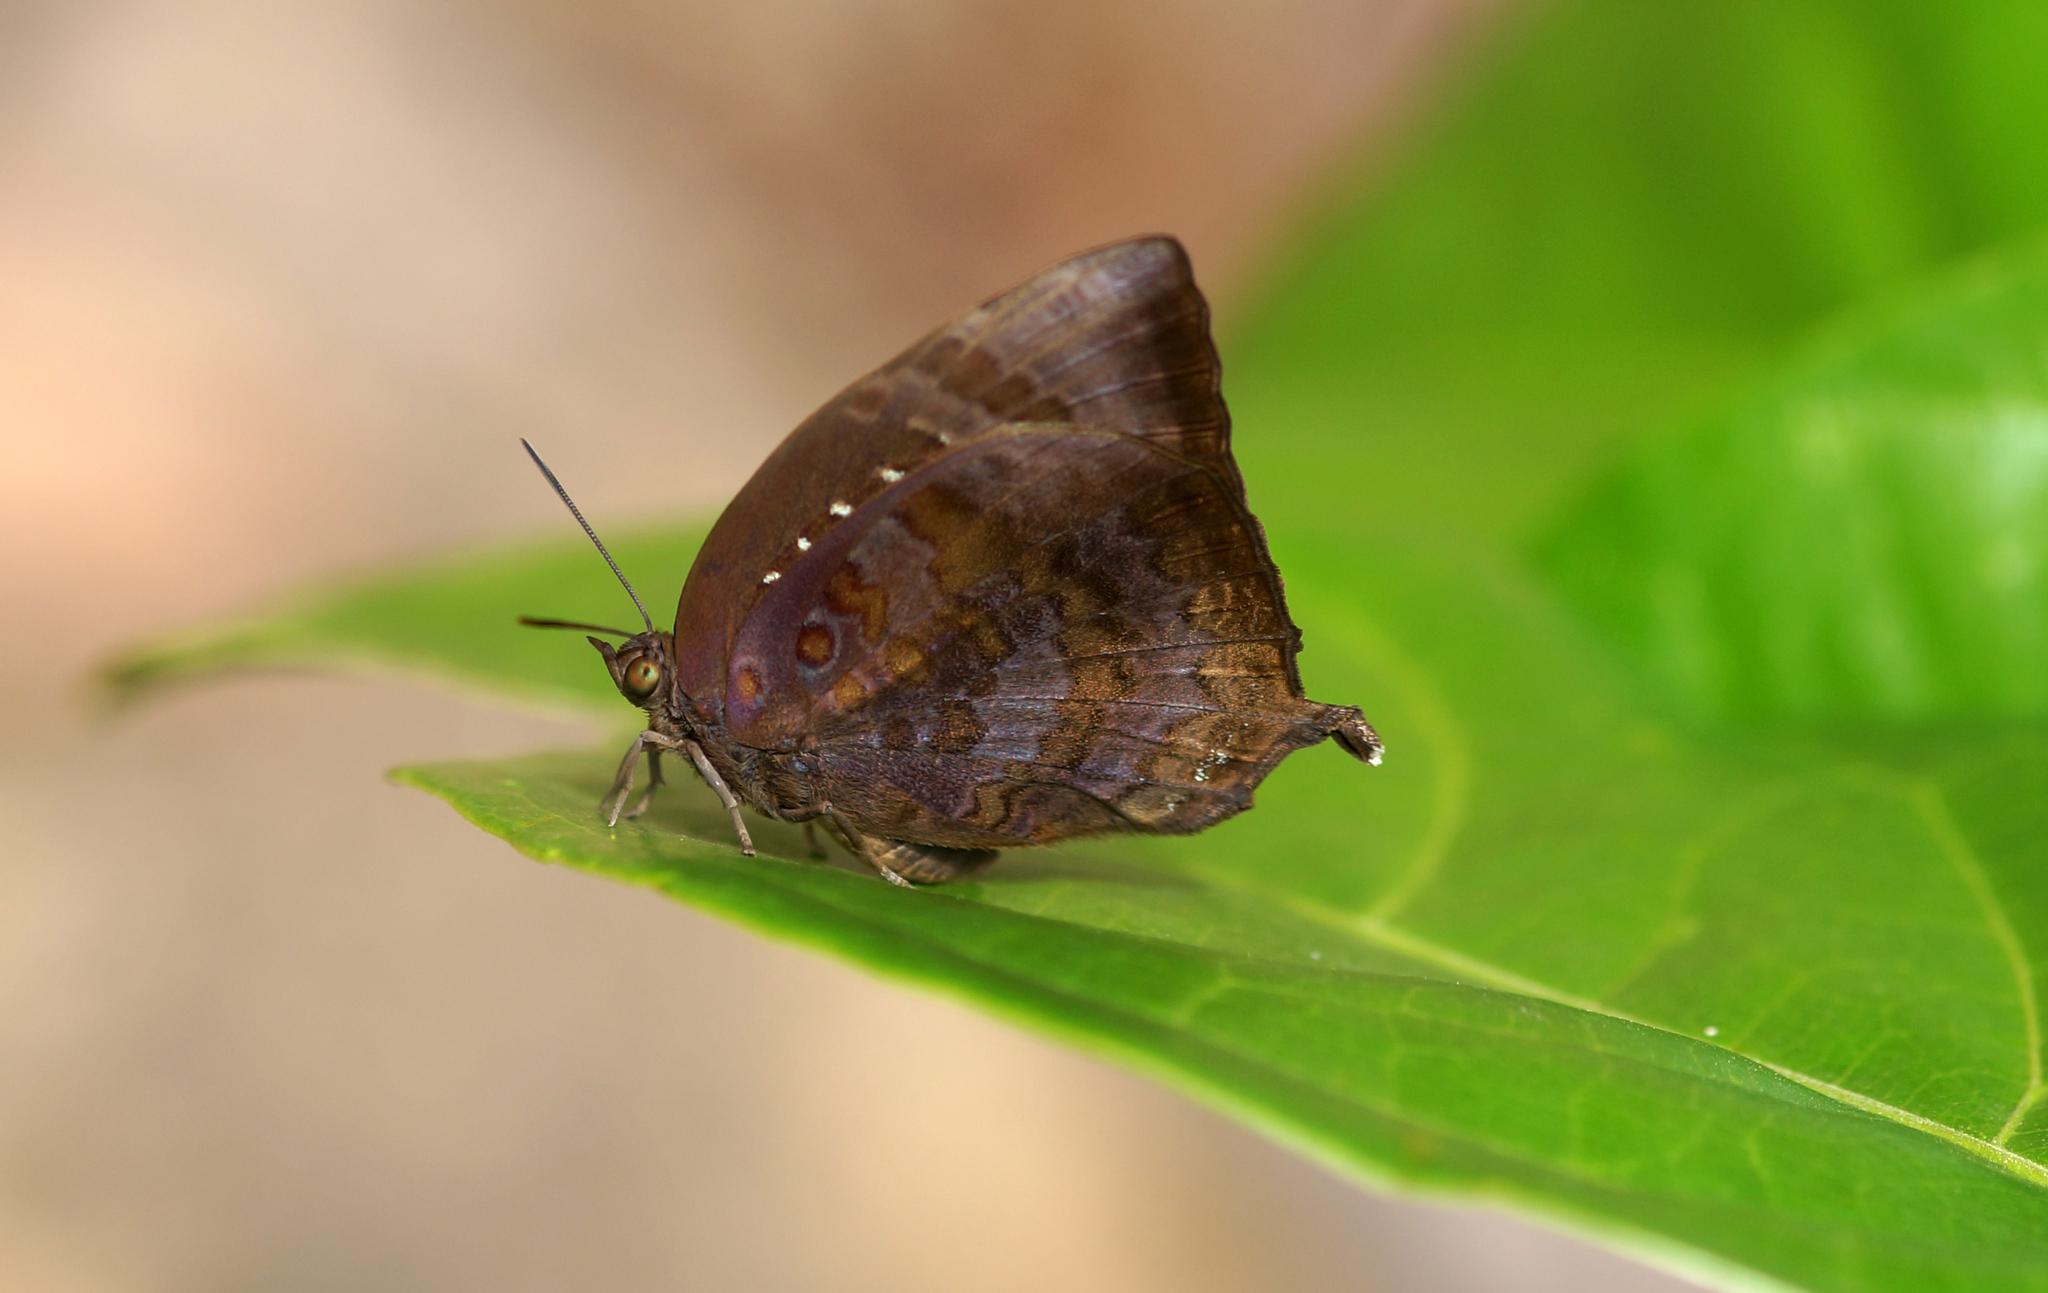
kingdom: Animalia
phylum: Arthropoda
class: Insecta
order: Lepidoptera
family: Lycaenidae
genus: Arhopala
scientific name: Arhopala centaurus
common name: Dull oak-blue
